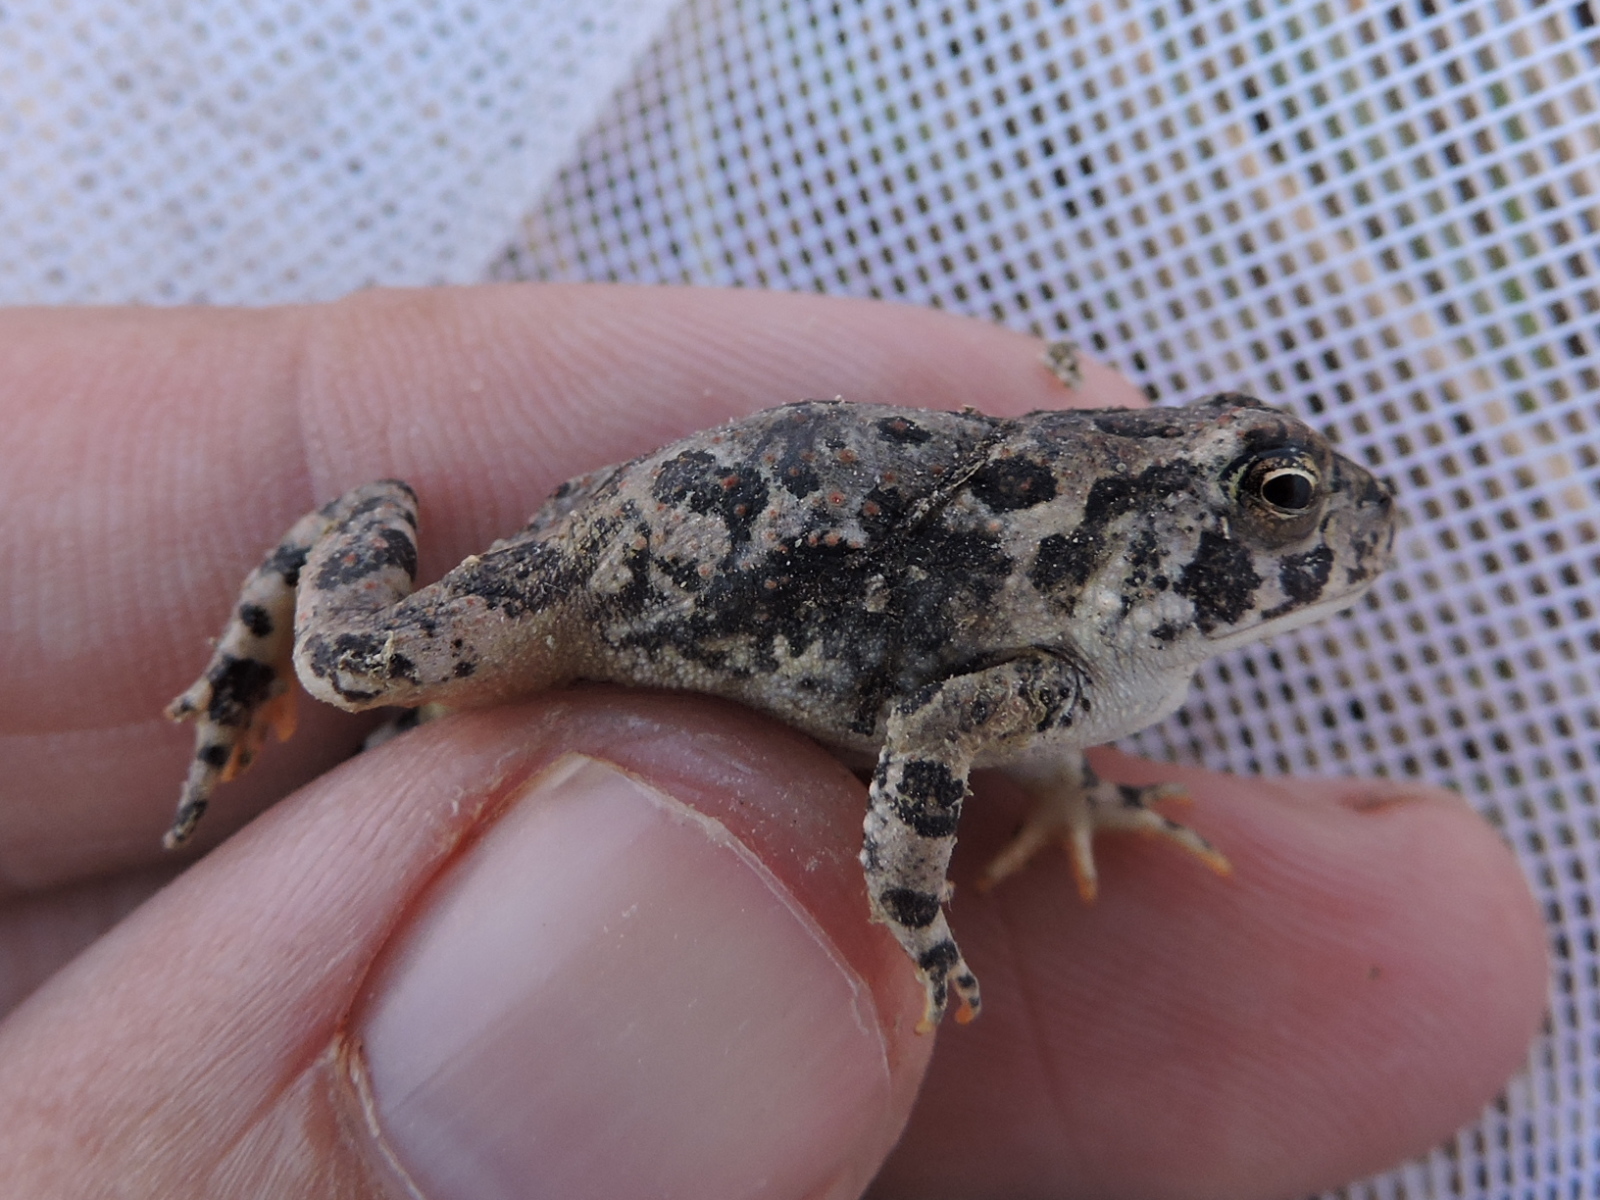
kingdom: Animalia
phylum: Chordata
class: Amphibia
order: Anura
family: Bufonidae
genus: Anaxyrus
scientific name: Anaxyrus woodhousii
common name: Woodhouse's toad
